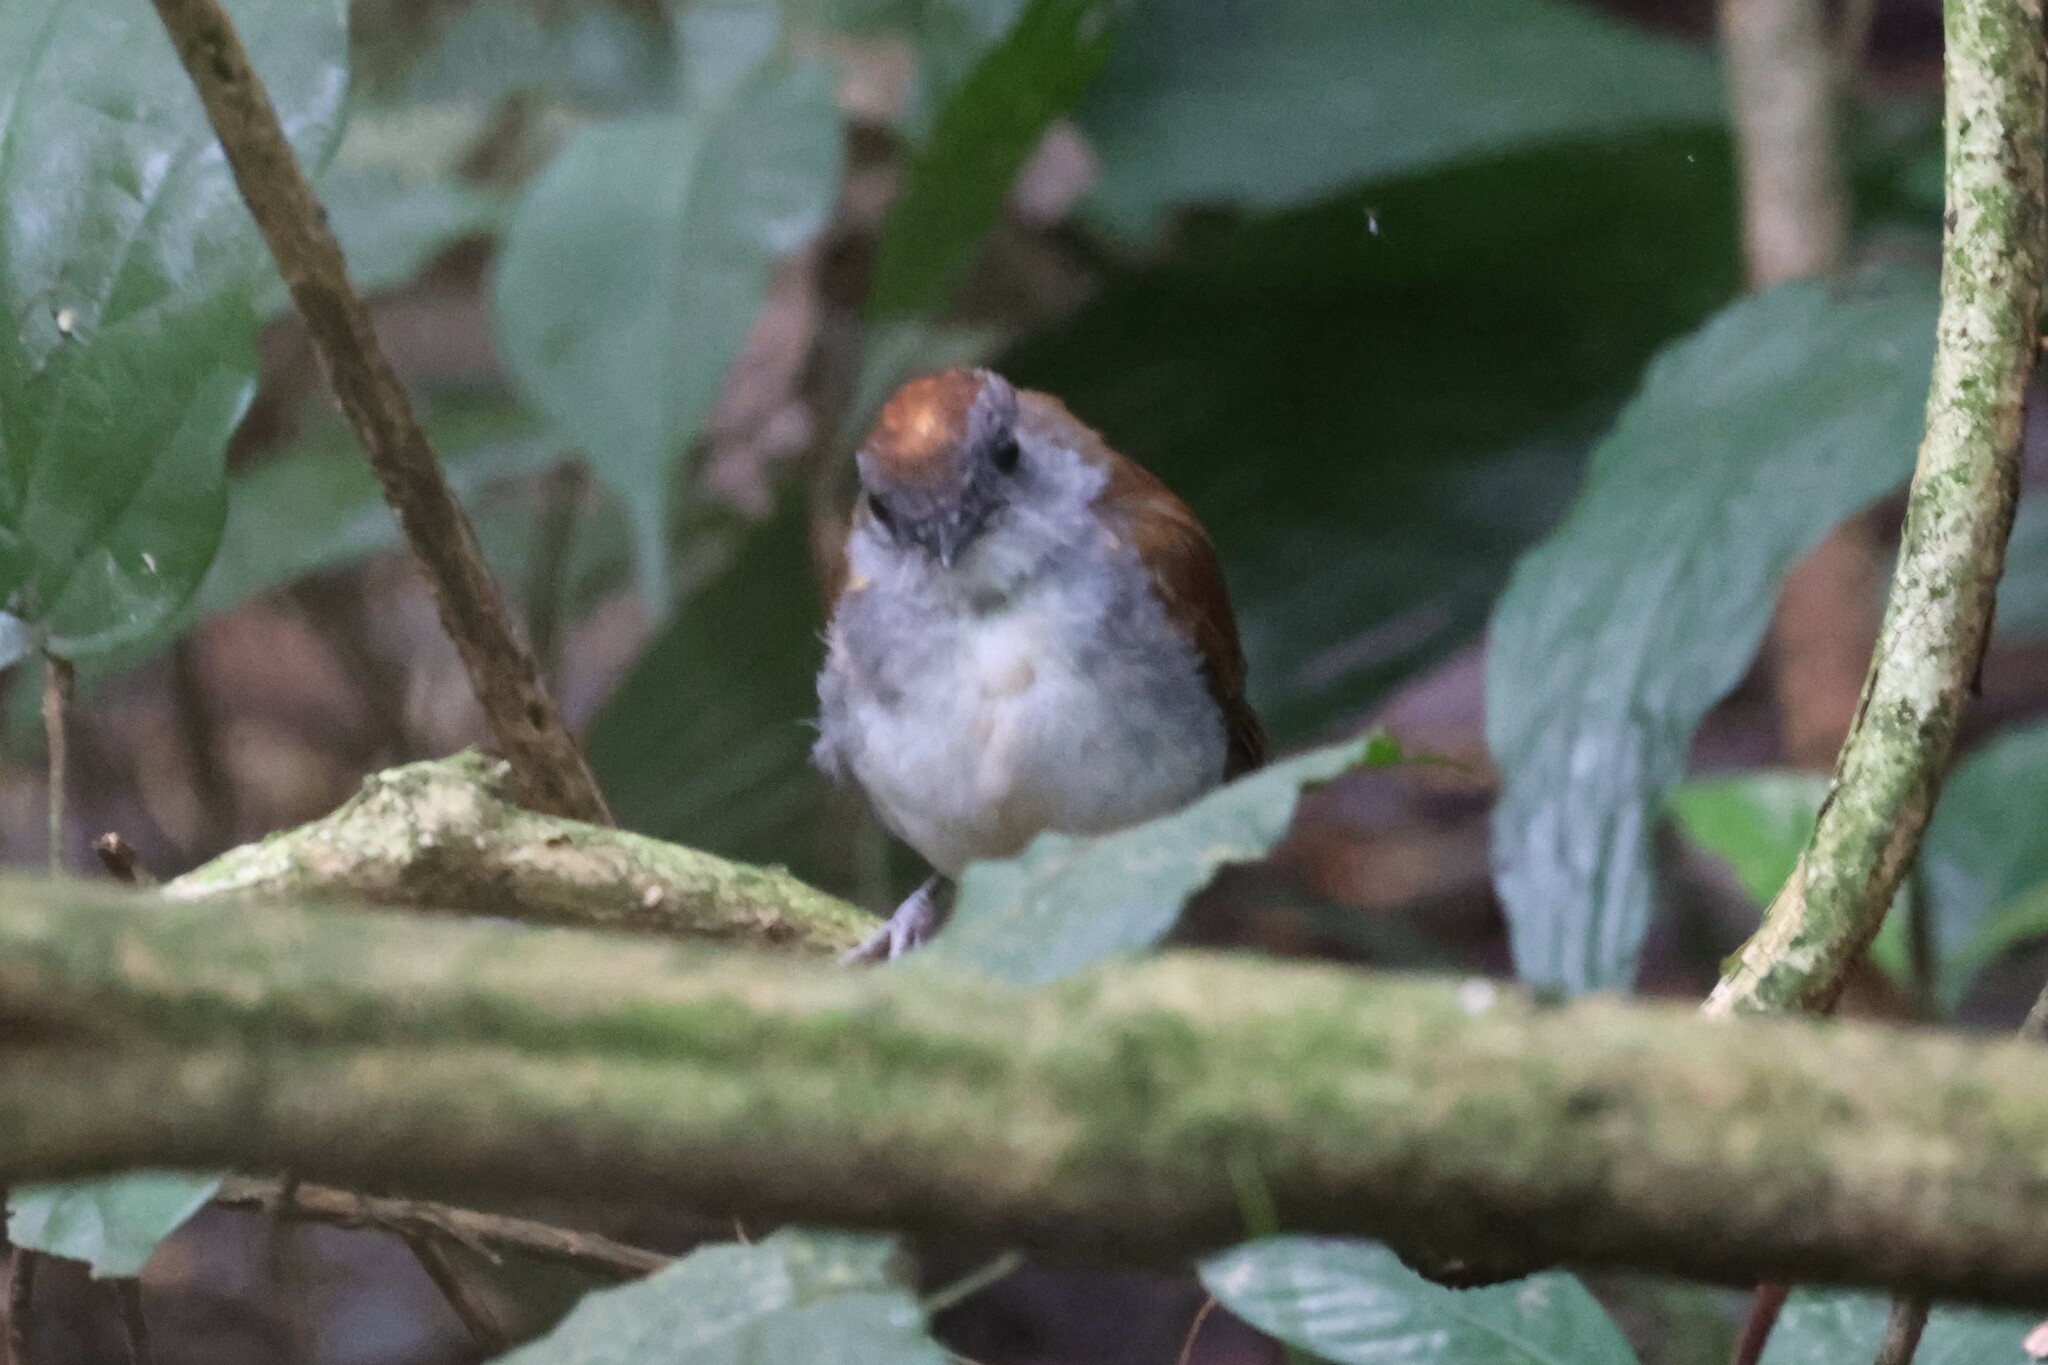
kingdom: Animalia
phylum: Chordata
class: Aves
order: Passeriformes
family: Turdidae
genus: Alethe
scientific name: Alethe castanea
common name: Fire-crested alethe
